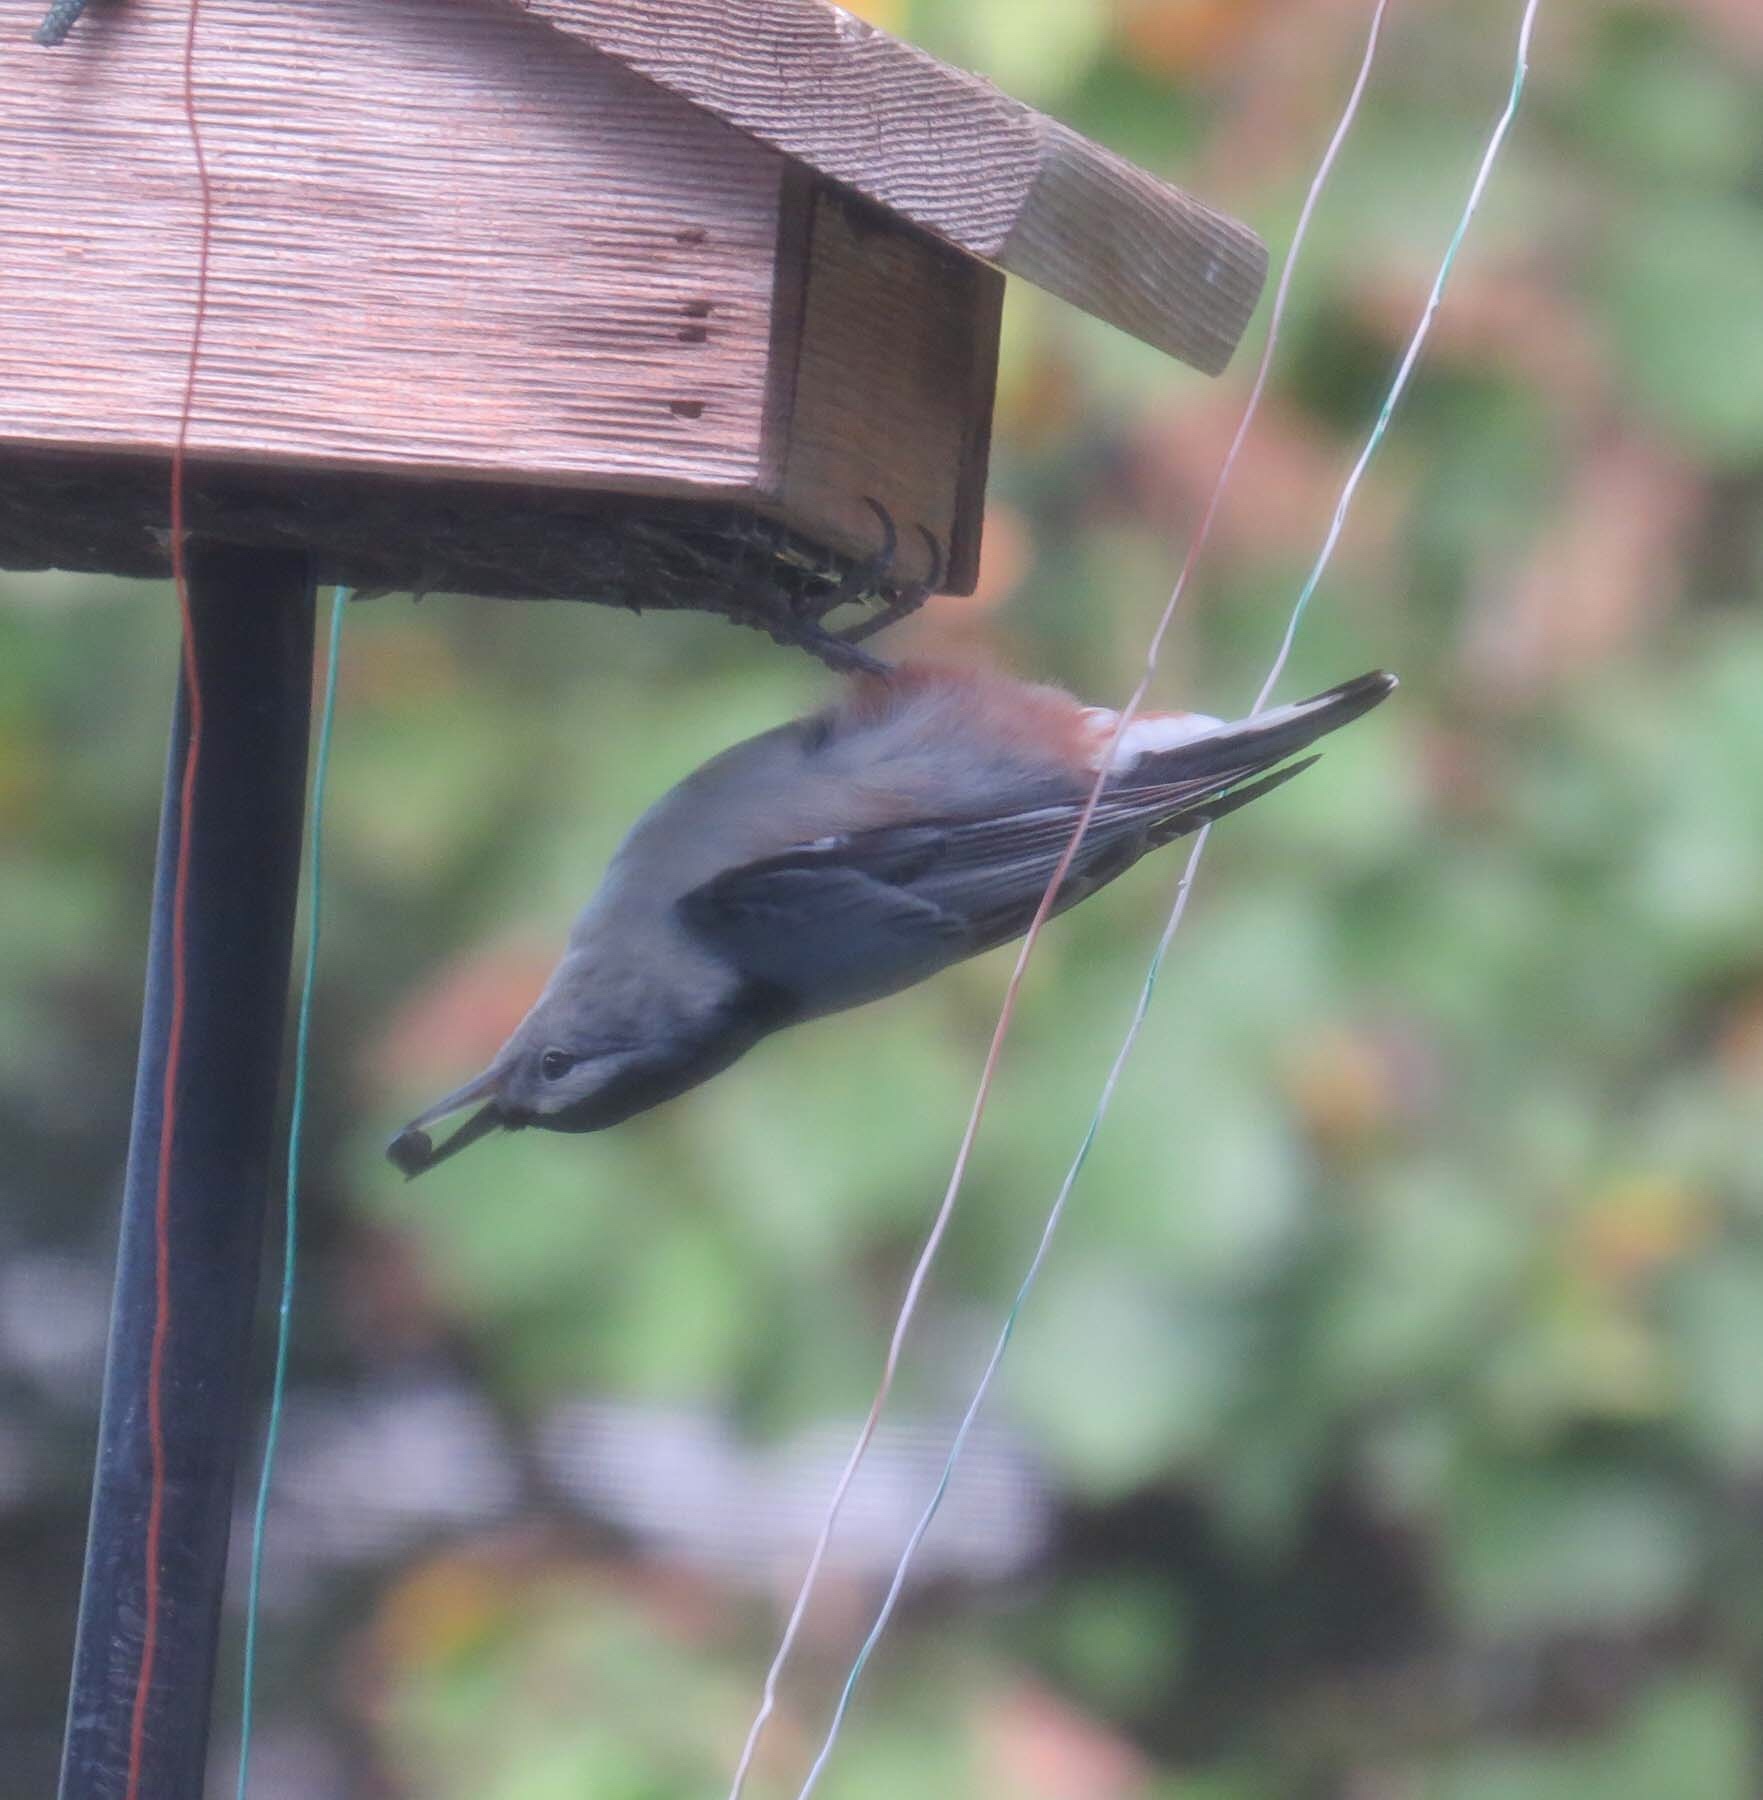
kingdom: Animalia
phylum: Chordata
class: Aves
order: Passeriformes
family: Sittidae
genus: Sitta
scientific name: Sitta carolinensis
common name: White-breasted nuthatch
